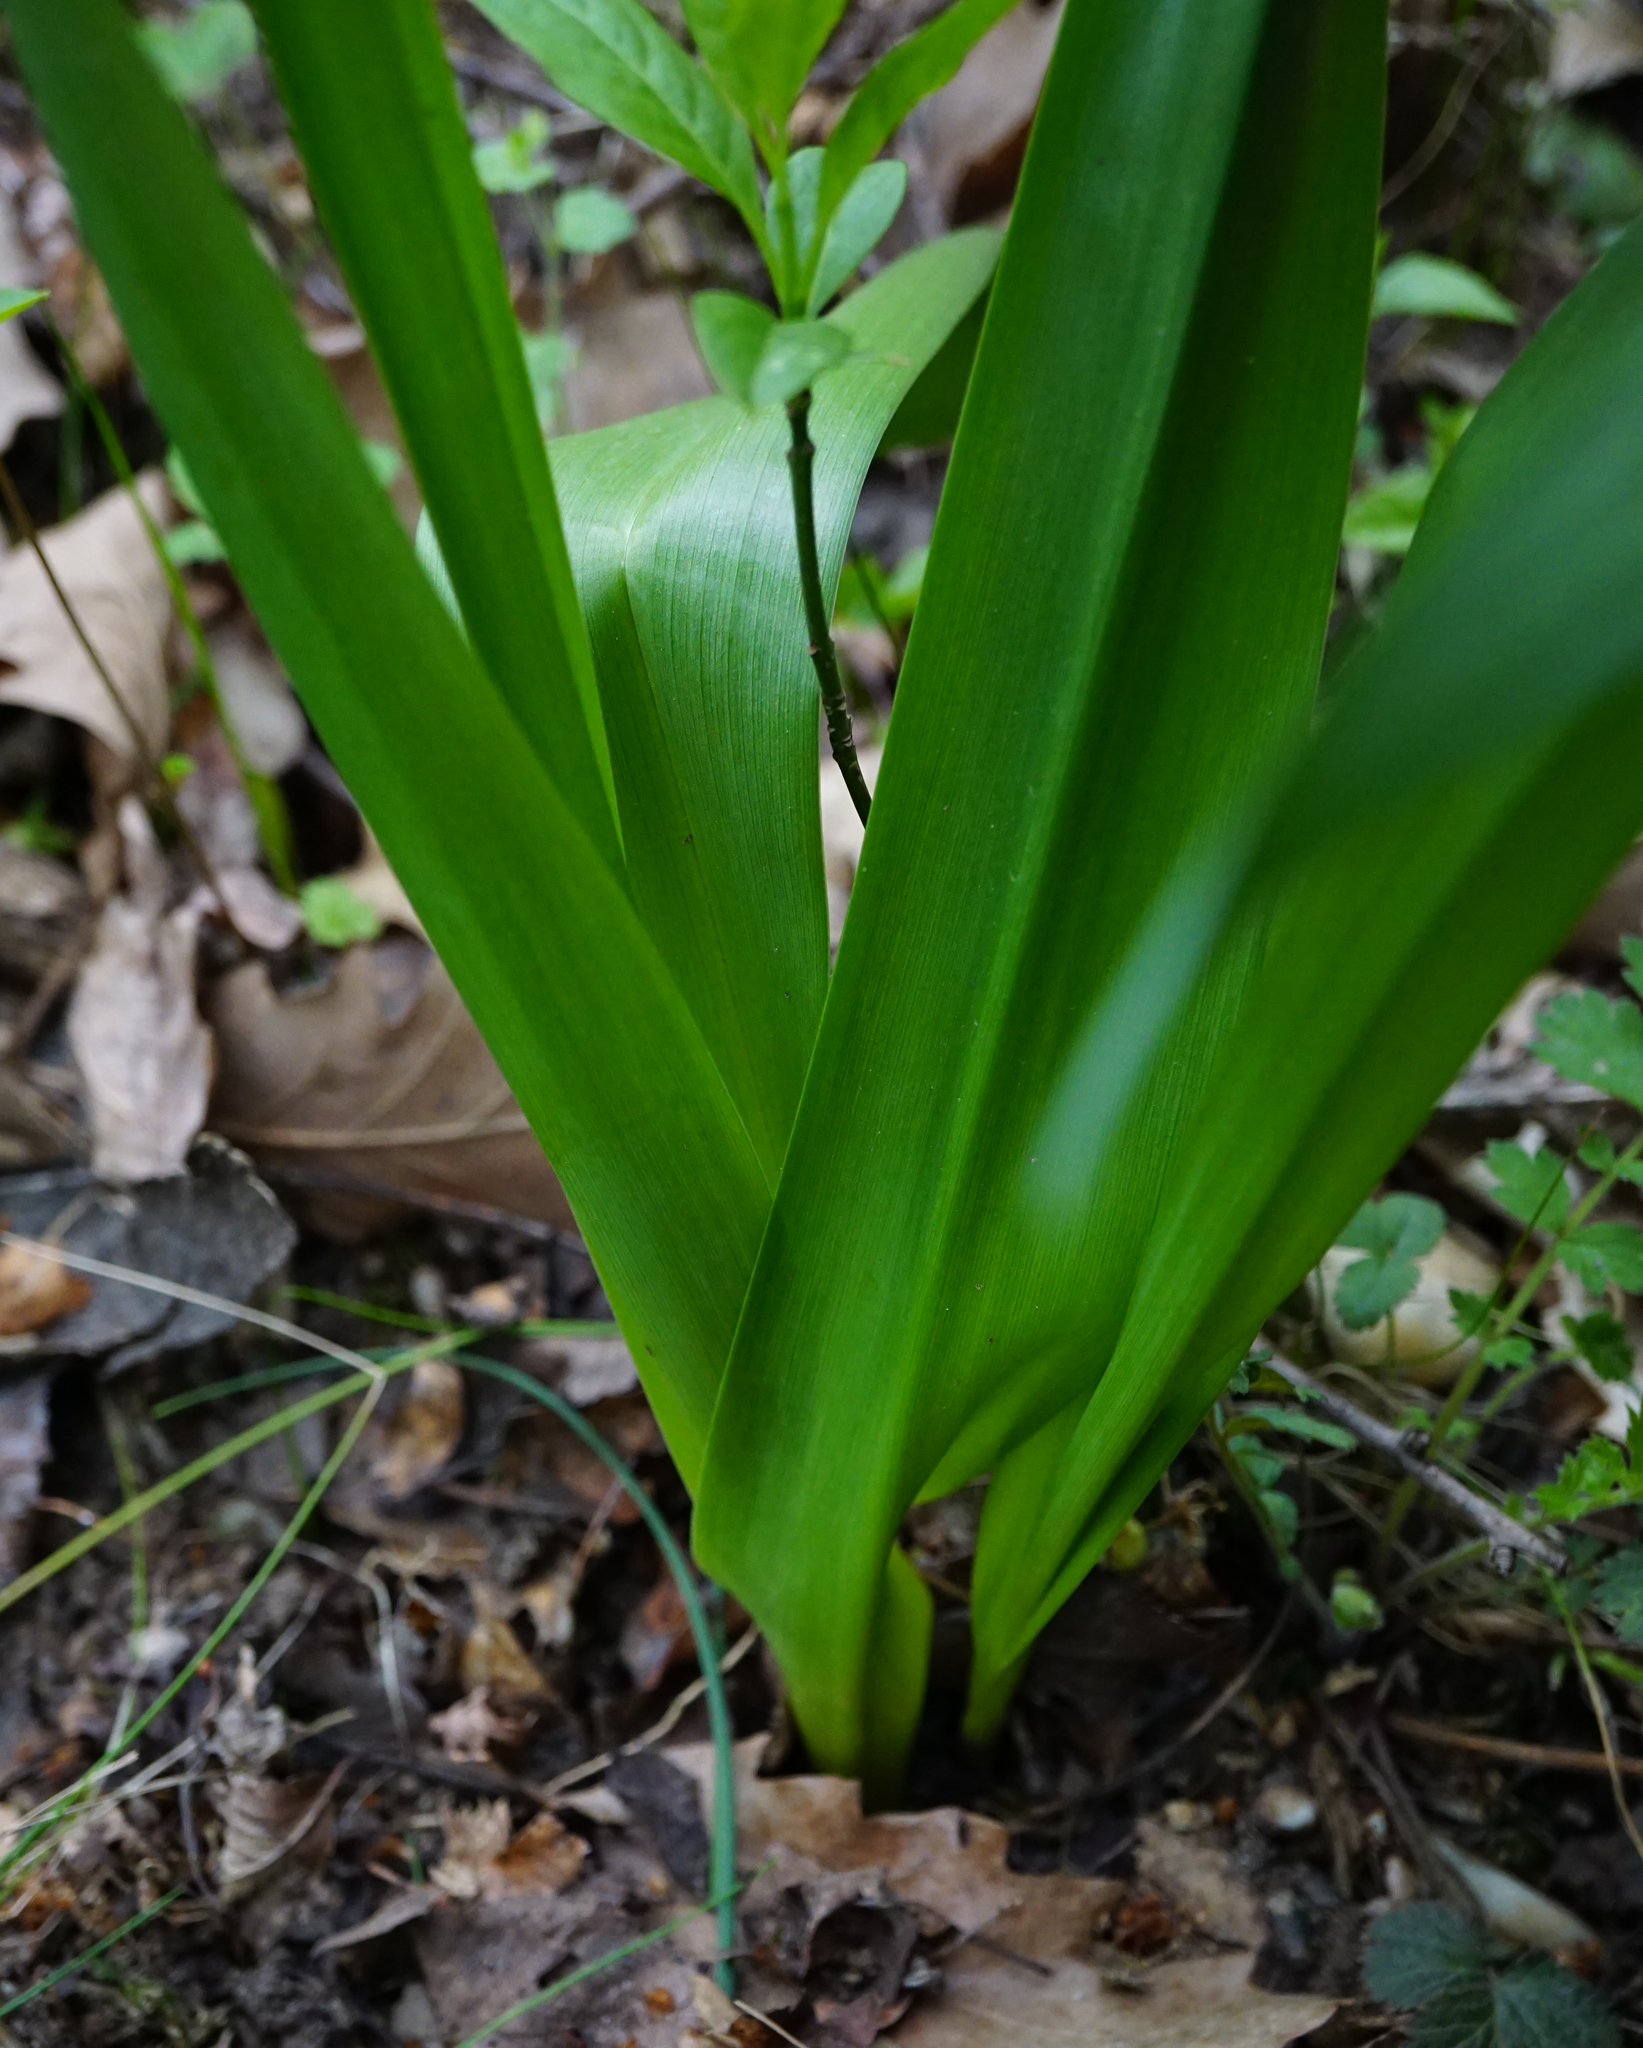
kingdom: Plantae
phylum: Tracheophyta
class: Liliopsida
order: Liliales
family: Colchicaceae
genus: Colchicum
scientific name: Colchicum autumnale
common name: Autumn crocus
